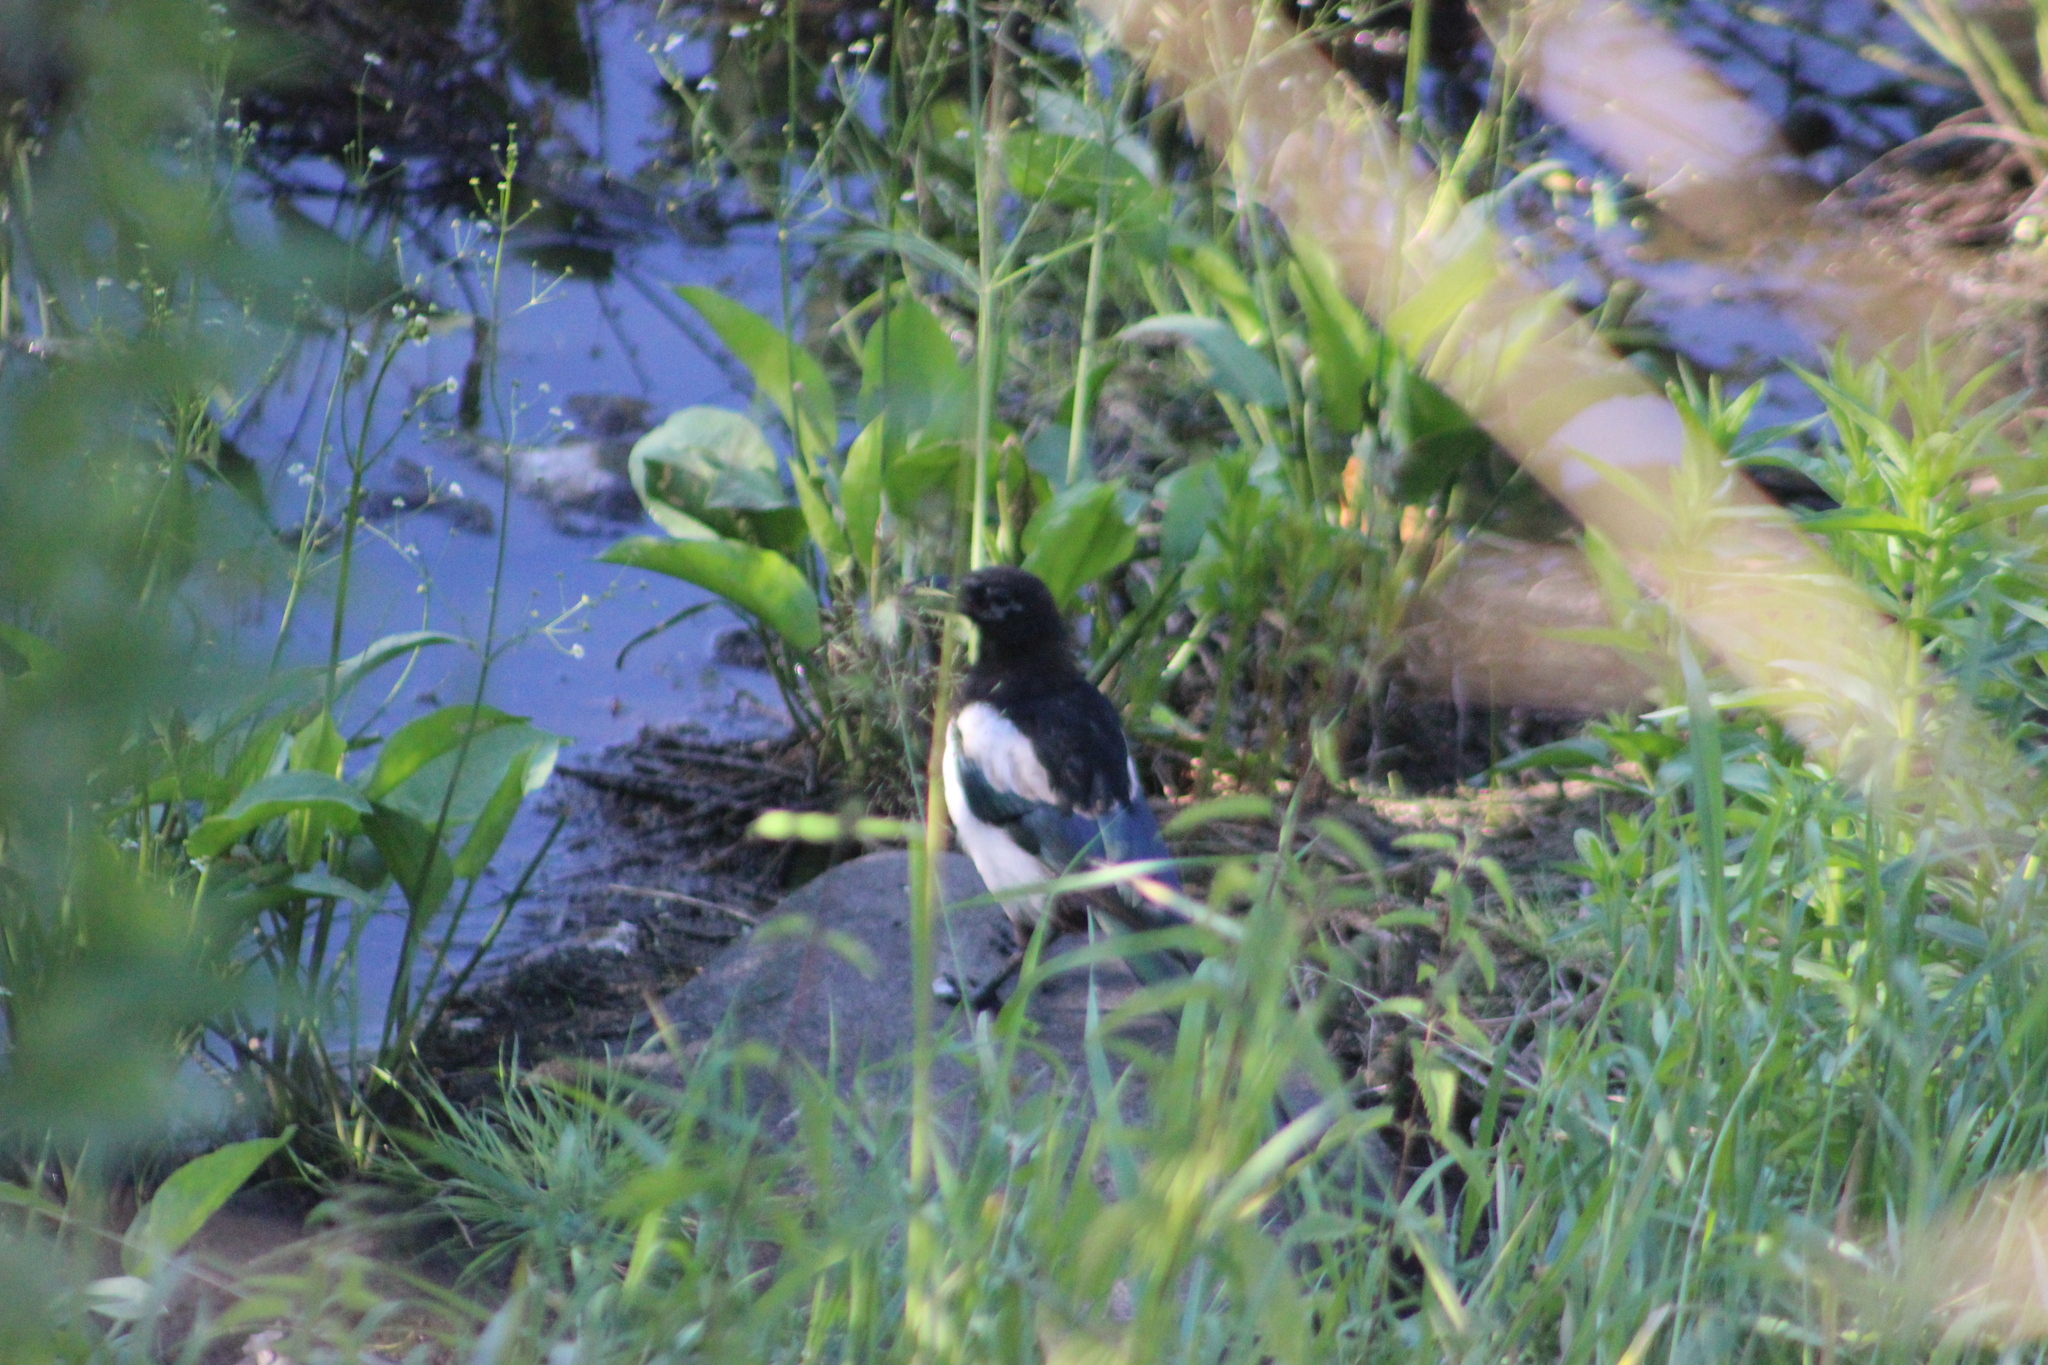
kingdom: Animalia
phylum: Chordata
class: Aves
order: Passeriformes
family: Corvidae
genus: Pica
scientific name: Pica pica
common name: Eurasian magpie
